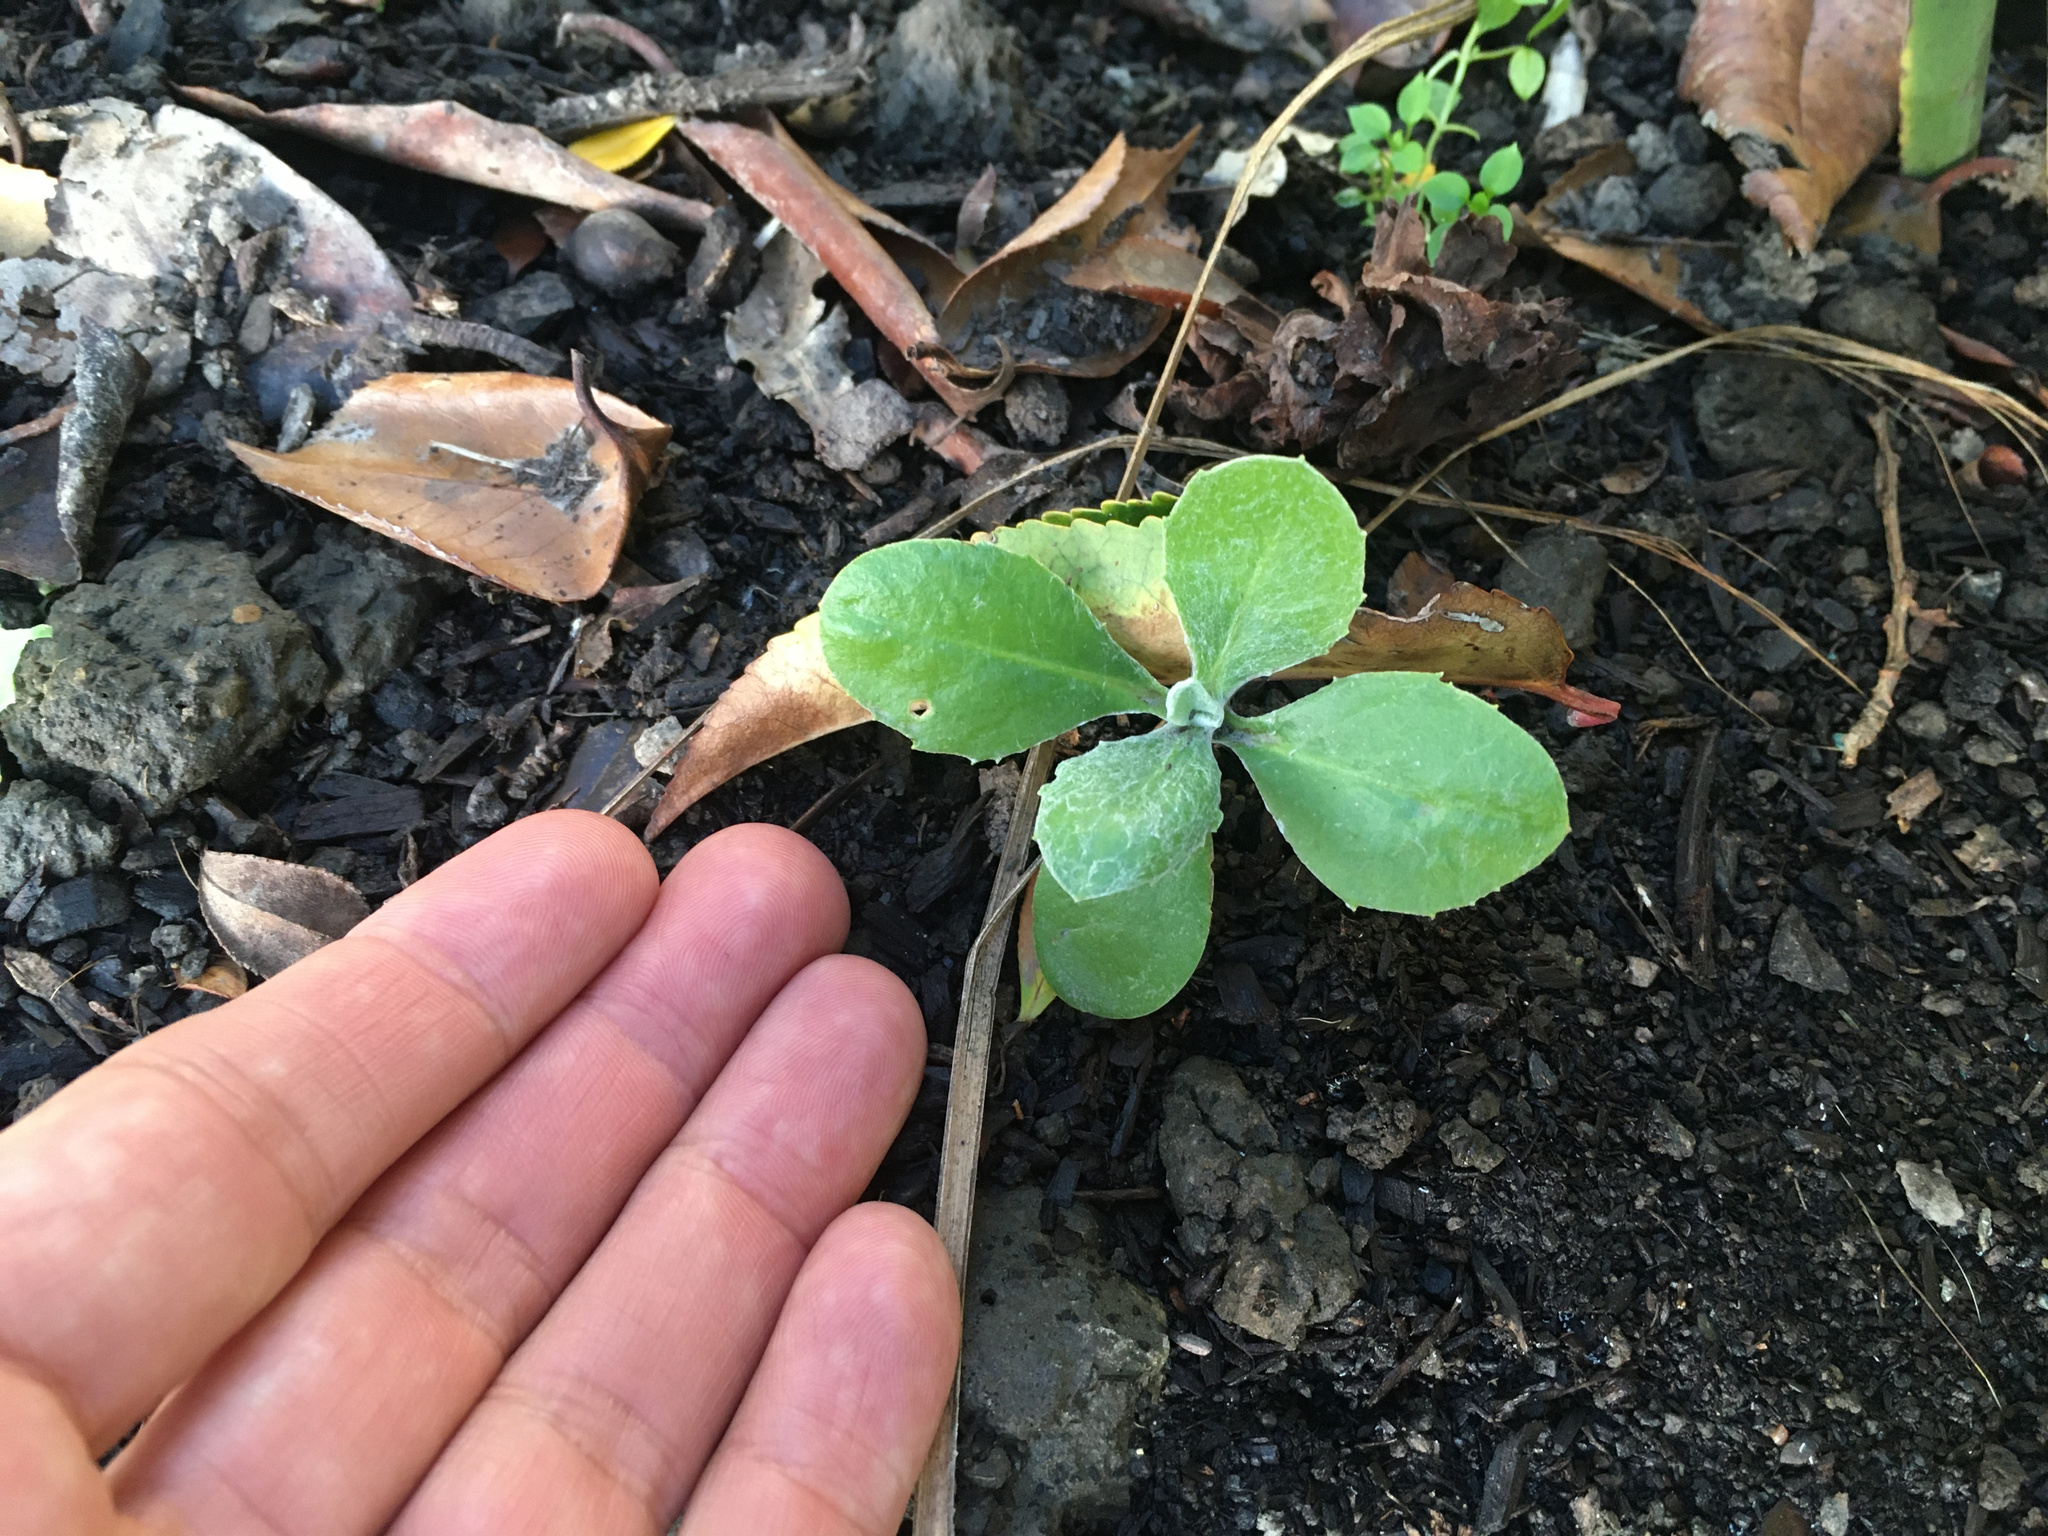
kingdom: Plantae
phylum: Tracheophyta
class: Magnoliopsida
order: Asterales
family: Asteraceae
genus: Osteospermum
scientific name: Osteospermum moniliferum
